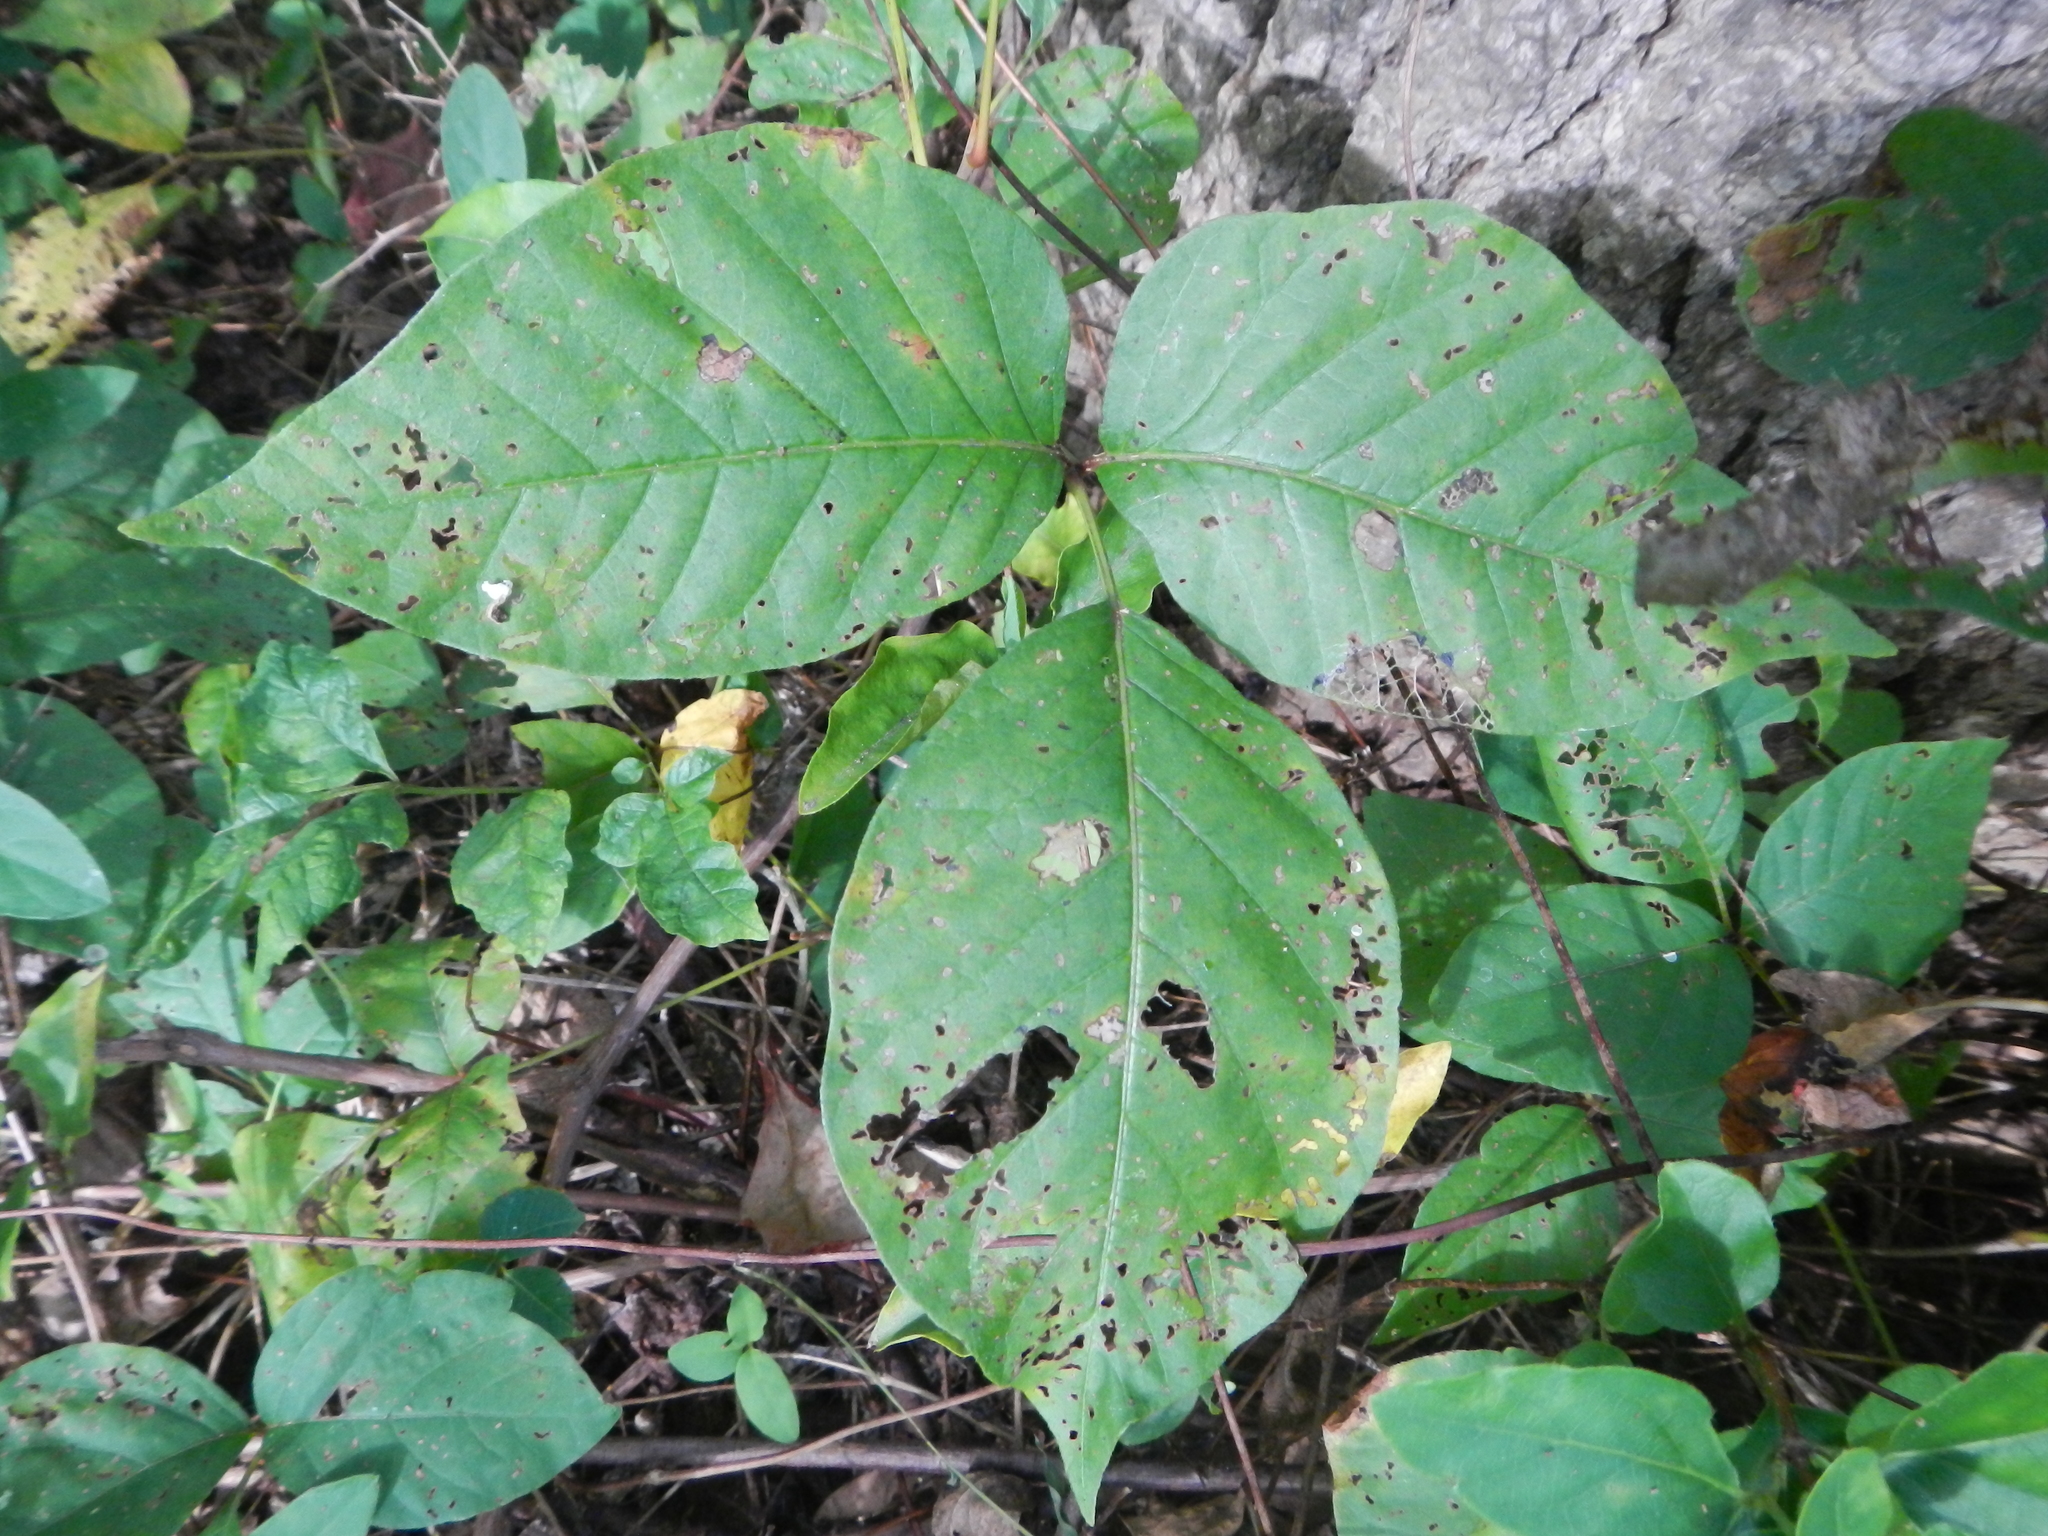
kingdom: Plantae
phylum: Tracheophyta
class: Magnoliopsida
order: Sapindales
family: Anacardiaceae
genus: Toxicodendron
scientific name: Toxicodendron radicans
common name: Poison ivy
